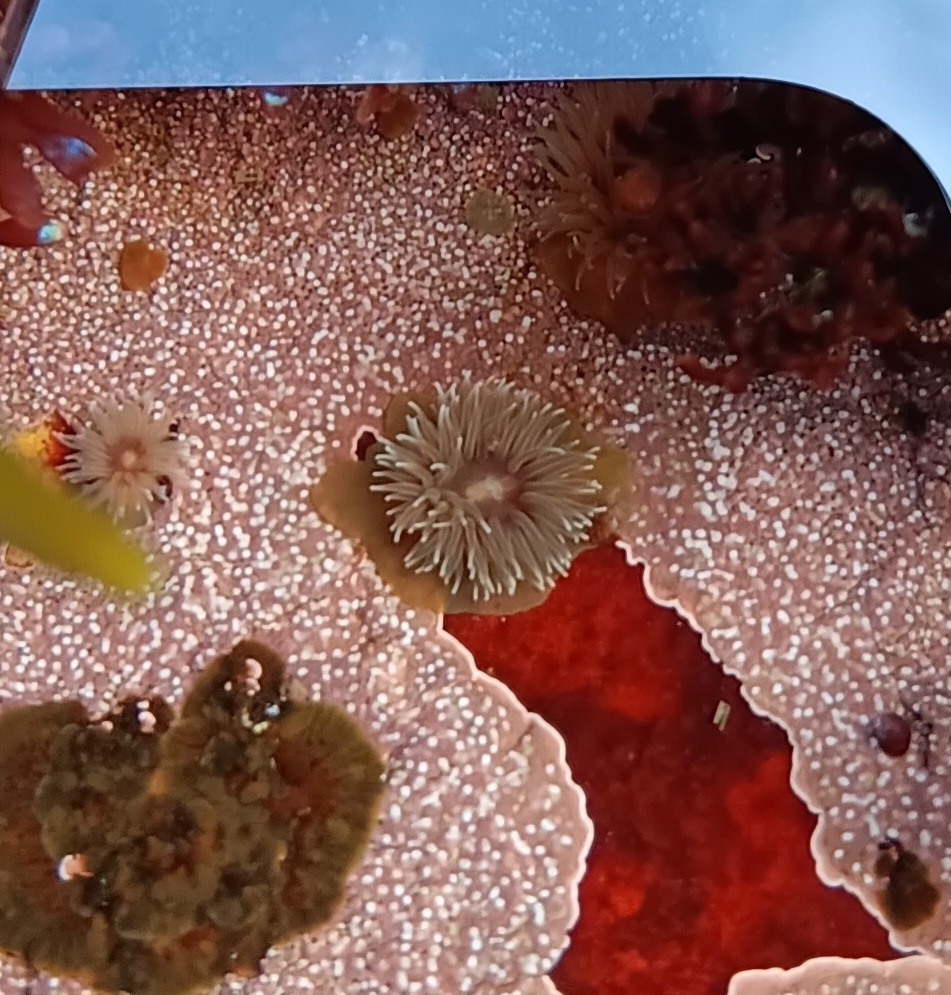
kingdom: Animalia
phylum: Cnidaria
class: Anthozoa
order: Actiniaria
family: Metridiidae
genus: Metridium
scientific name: Metridium senile
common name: Clonal plumose anemone
